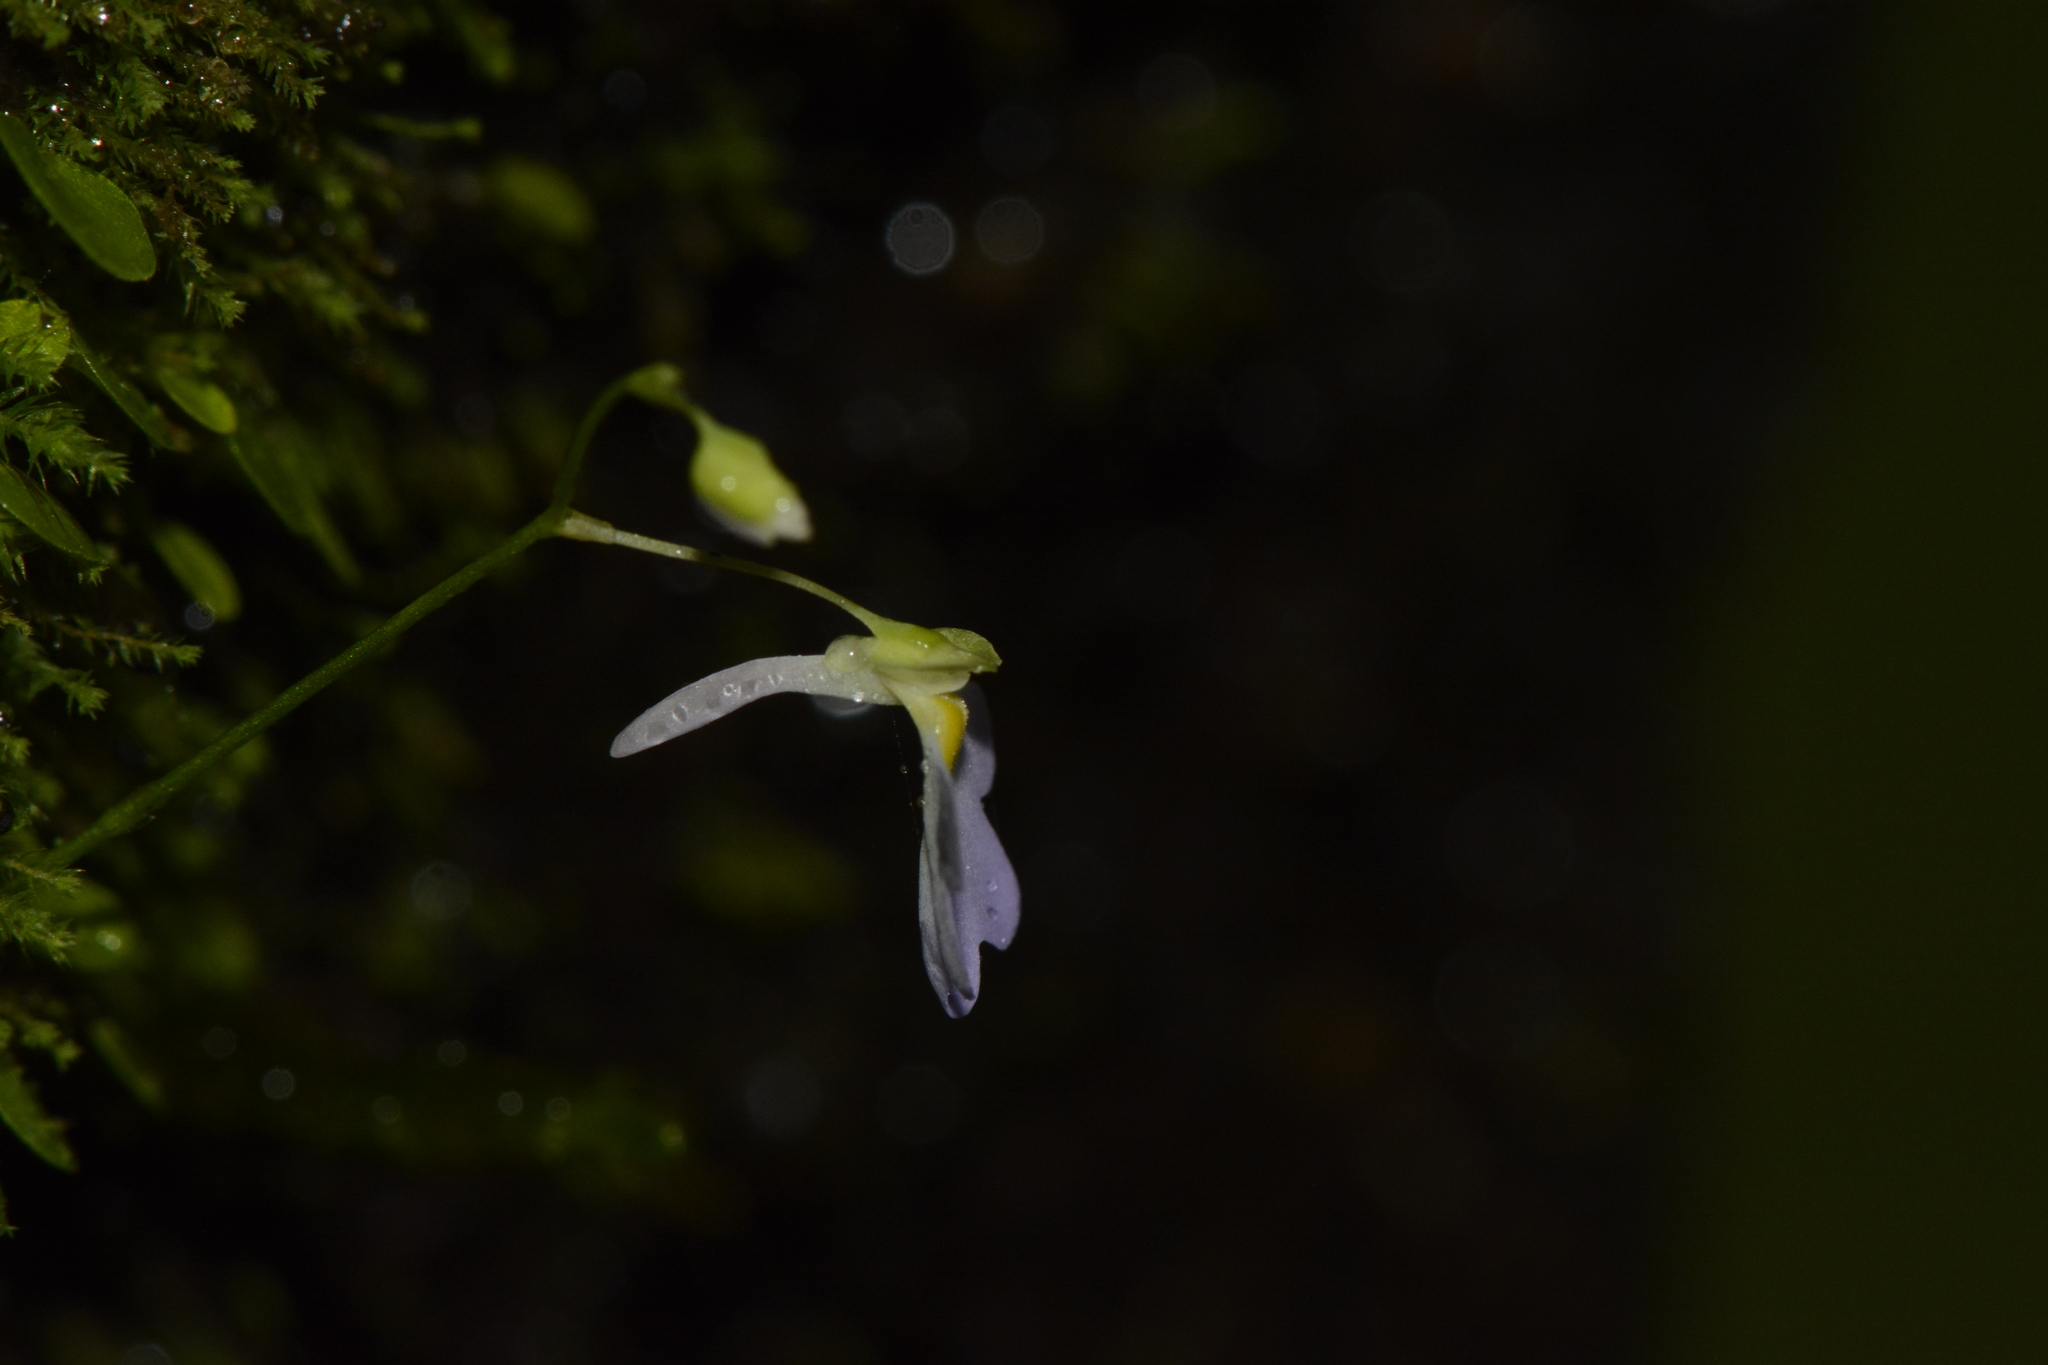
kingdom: Plantae
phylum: Tracheophyta
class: Magnoliopsida
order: Lamiales
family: Lentibulariaceae
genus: Utricularia
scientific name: Utricularia striatula
